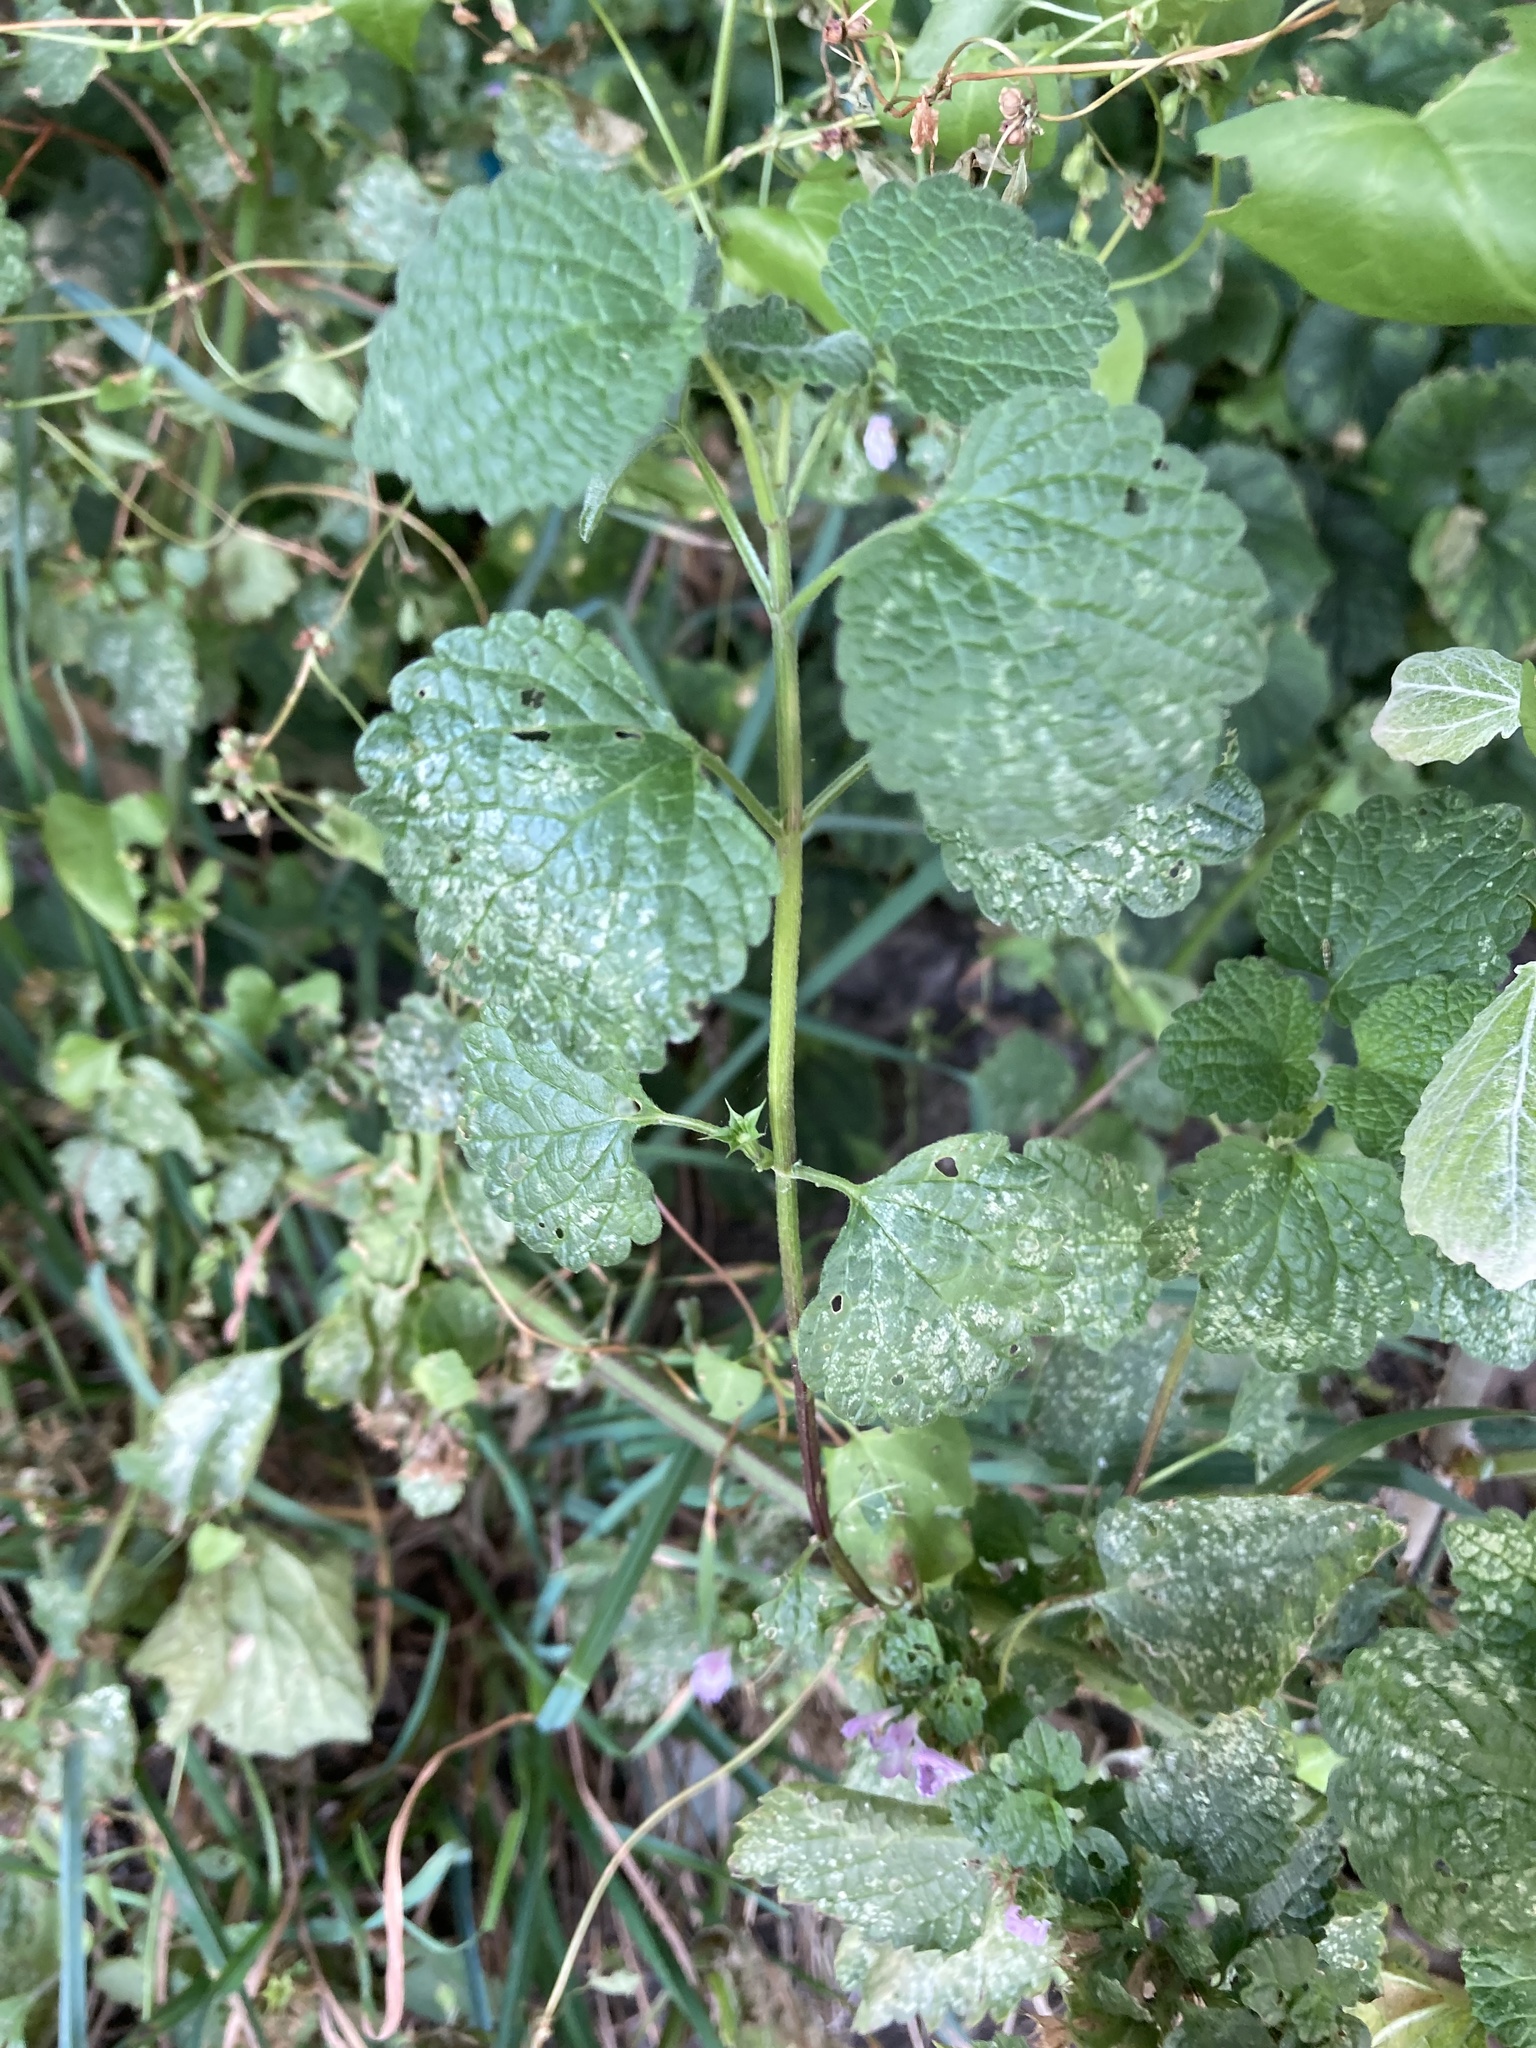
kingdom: Plantae
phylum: Tracheophyta
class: Magnoliopsida
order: Lamiales
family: Lamiaceae
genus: Ballota
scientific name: Ballota nigra
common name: Black horehound
